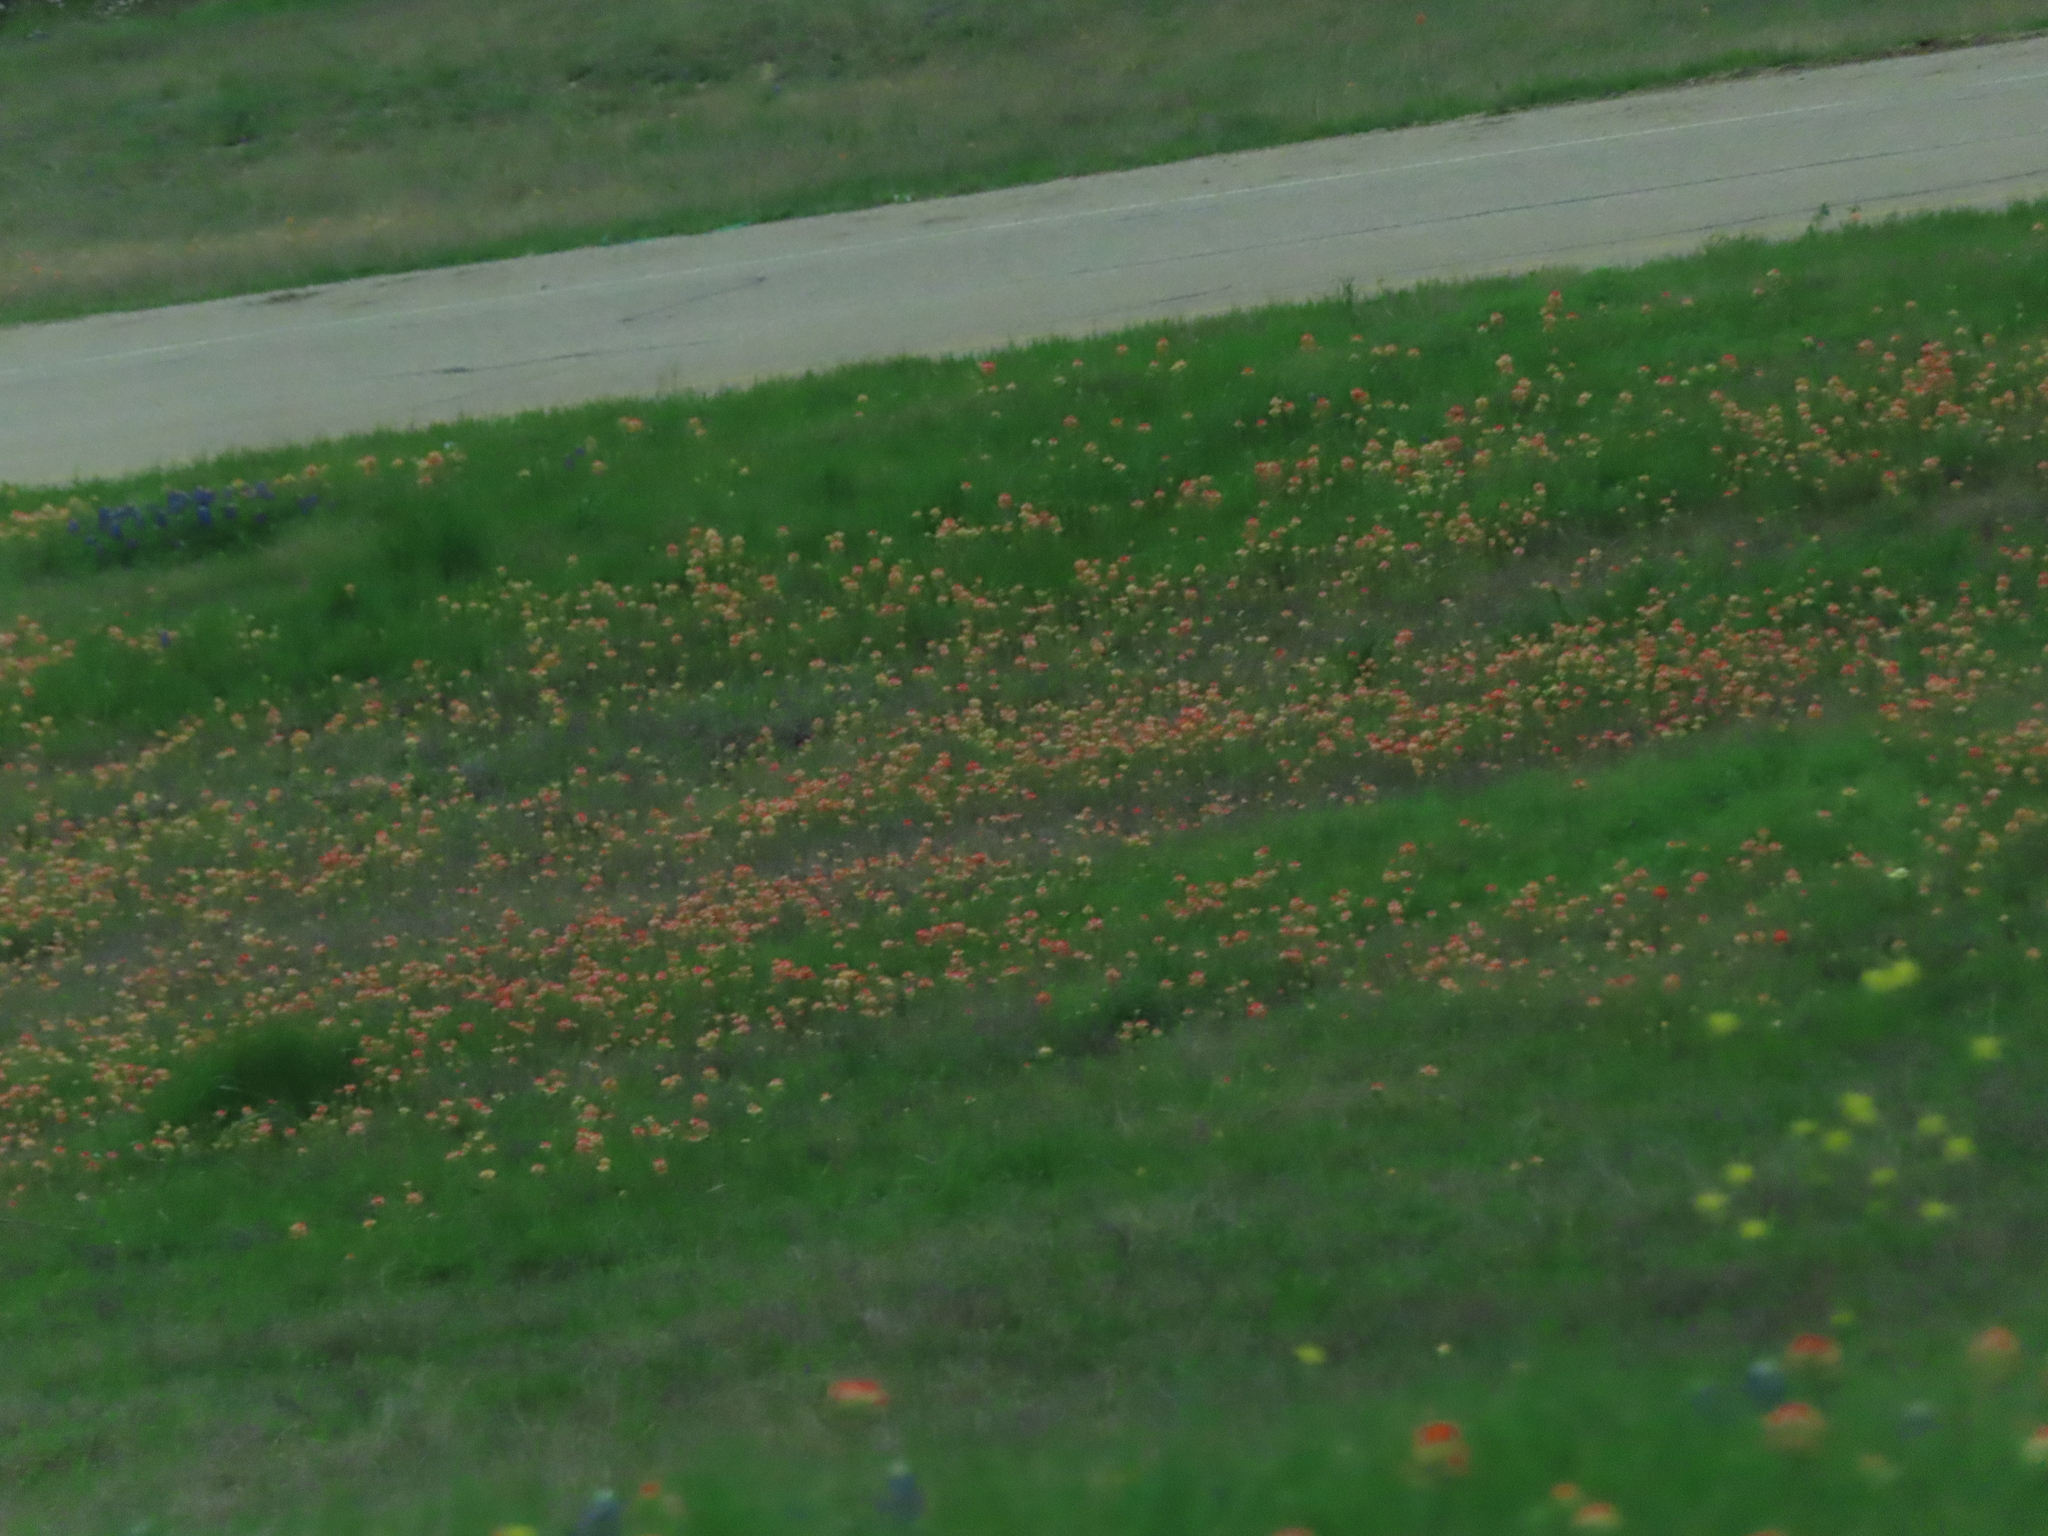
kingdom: Plantae
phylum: Tracheophyta
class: Magnoliopsida
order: Lamiales
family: Orobanchaceae
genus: Castilleja
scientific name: Castilleja indivisa
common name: Texas paintbrush
